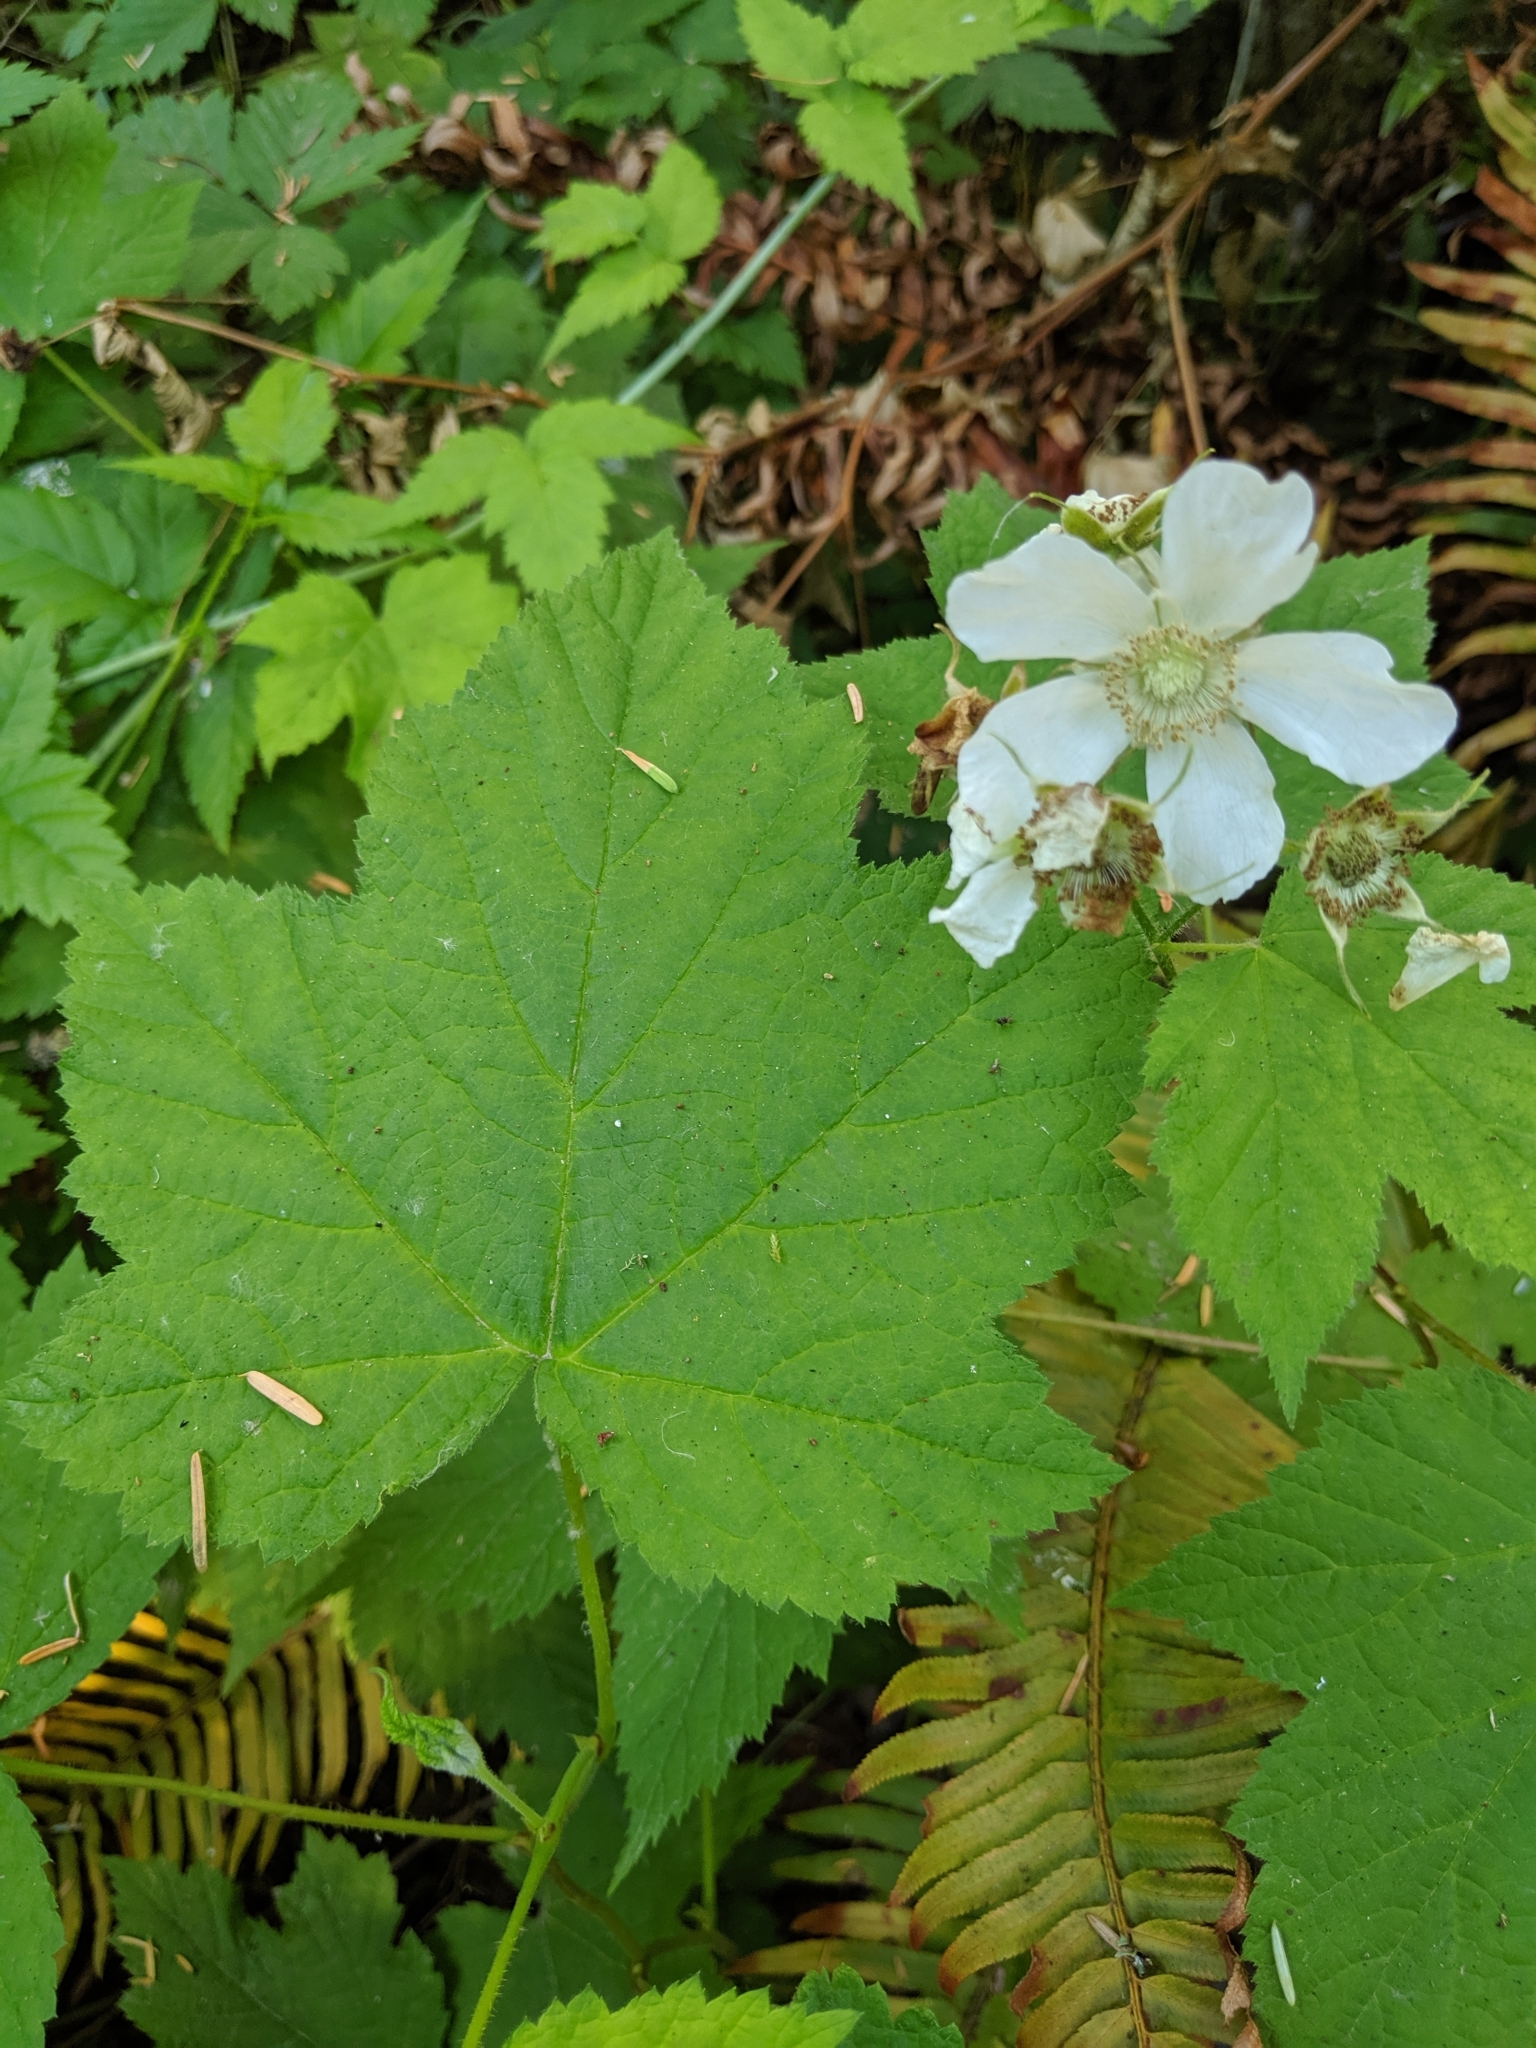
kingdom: Plantae
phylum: Tracheophyta
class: Magnoliopsida
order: Rosales
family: Rosaceae
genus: Rubus
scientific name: Rubus parviflorus
